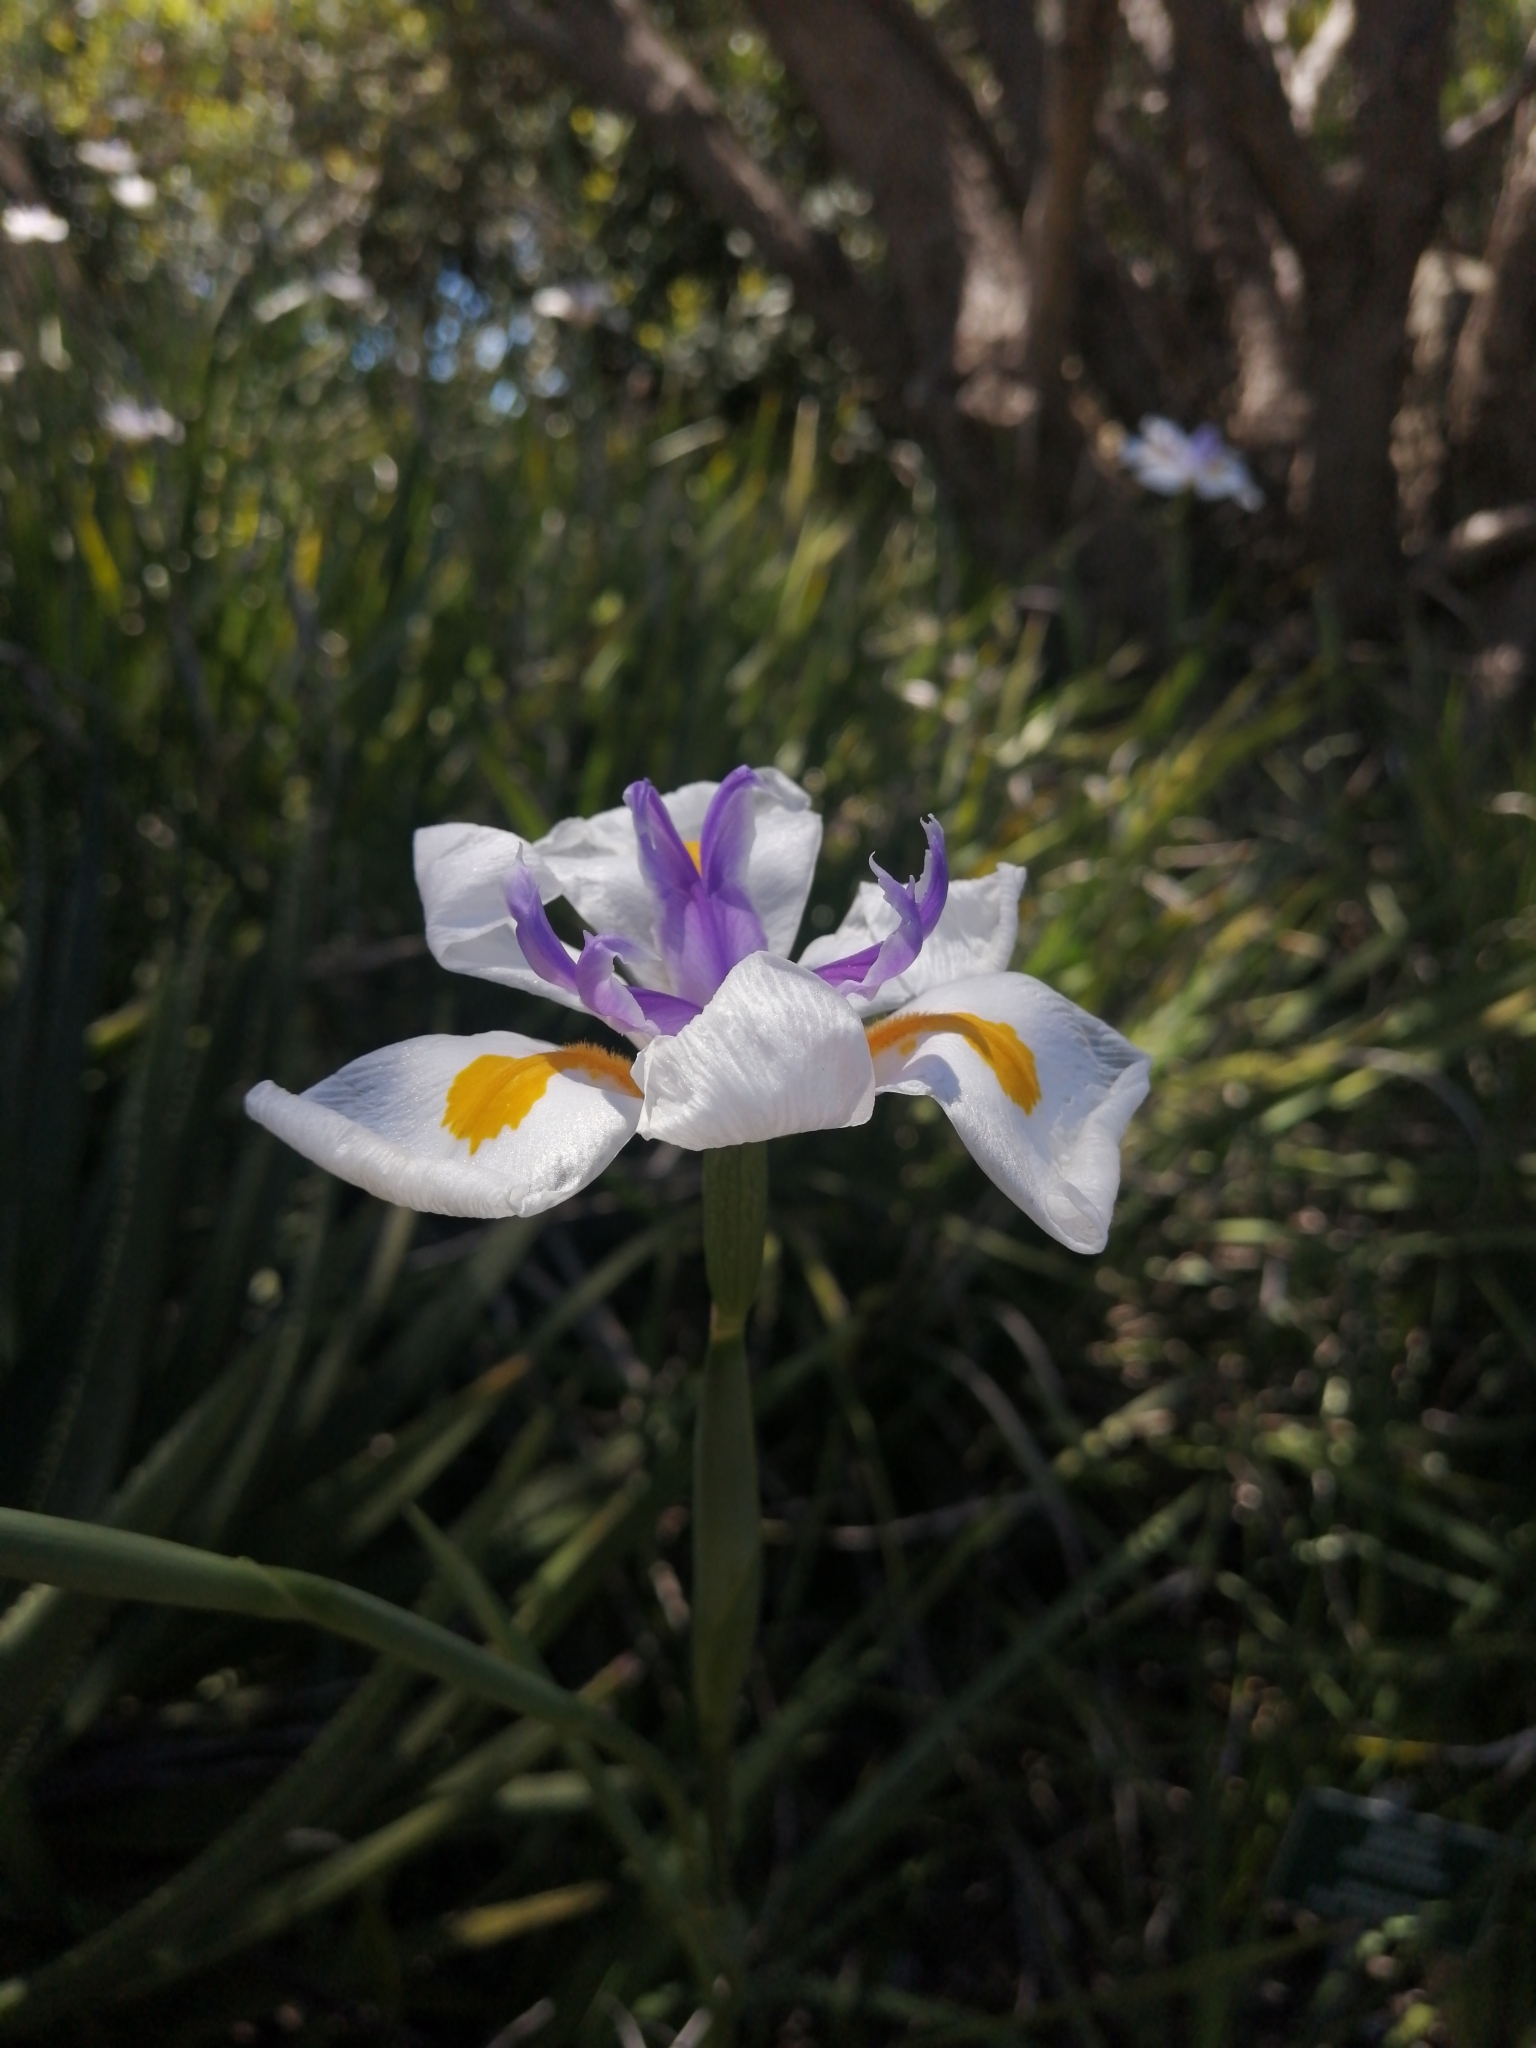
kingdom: Plantae
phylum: Tracheophyta
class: Liliopsida
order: Asparagales
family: Iridaceae
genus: Dietes
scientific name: Dietes grandiflora
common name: Wild iris
